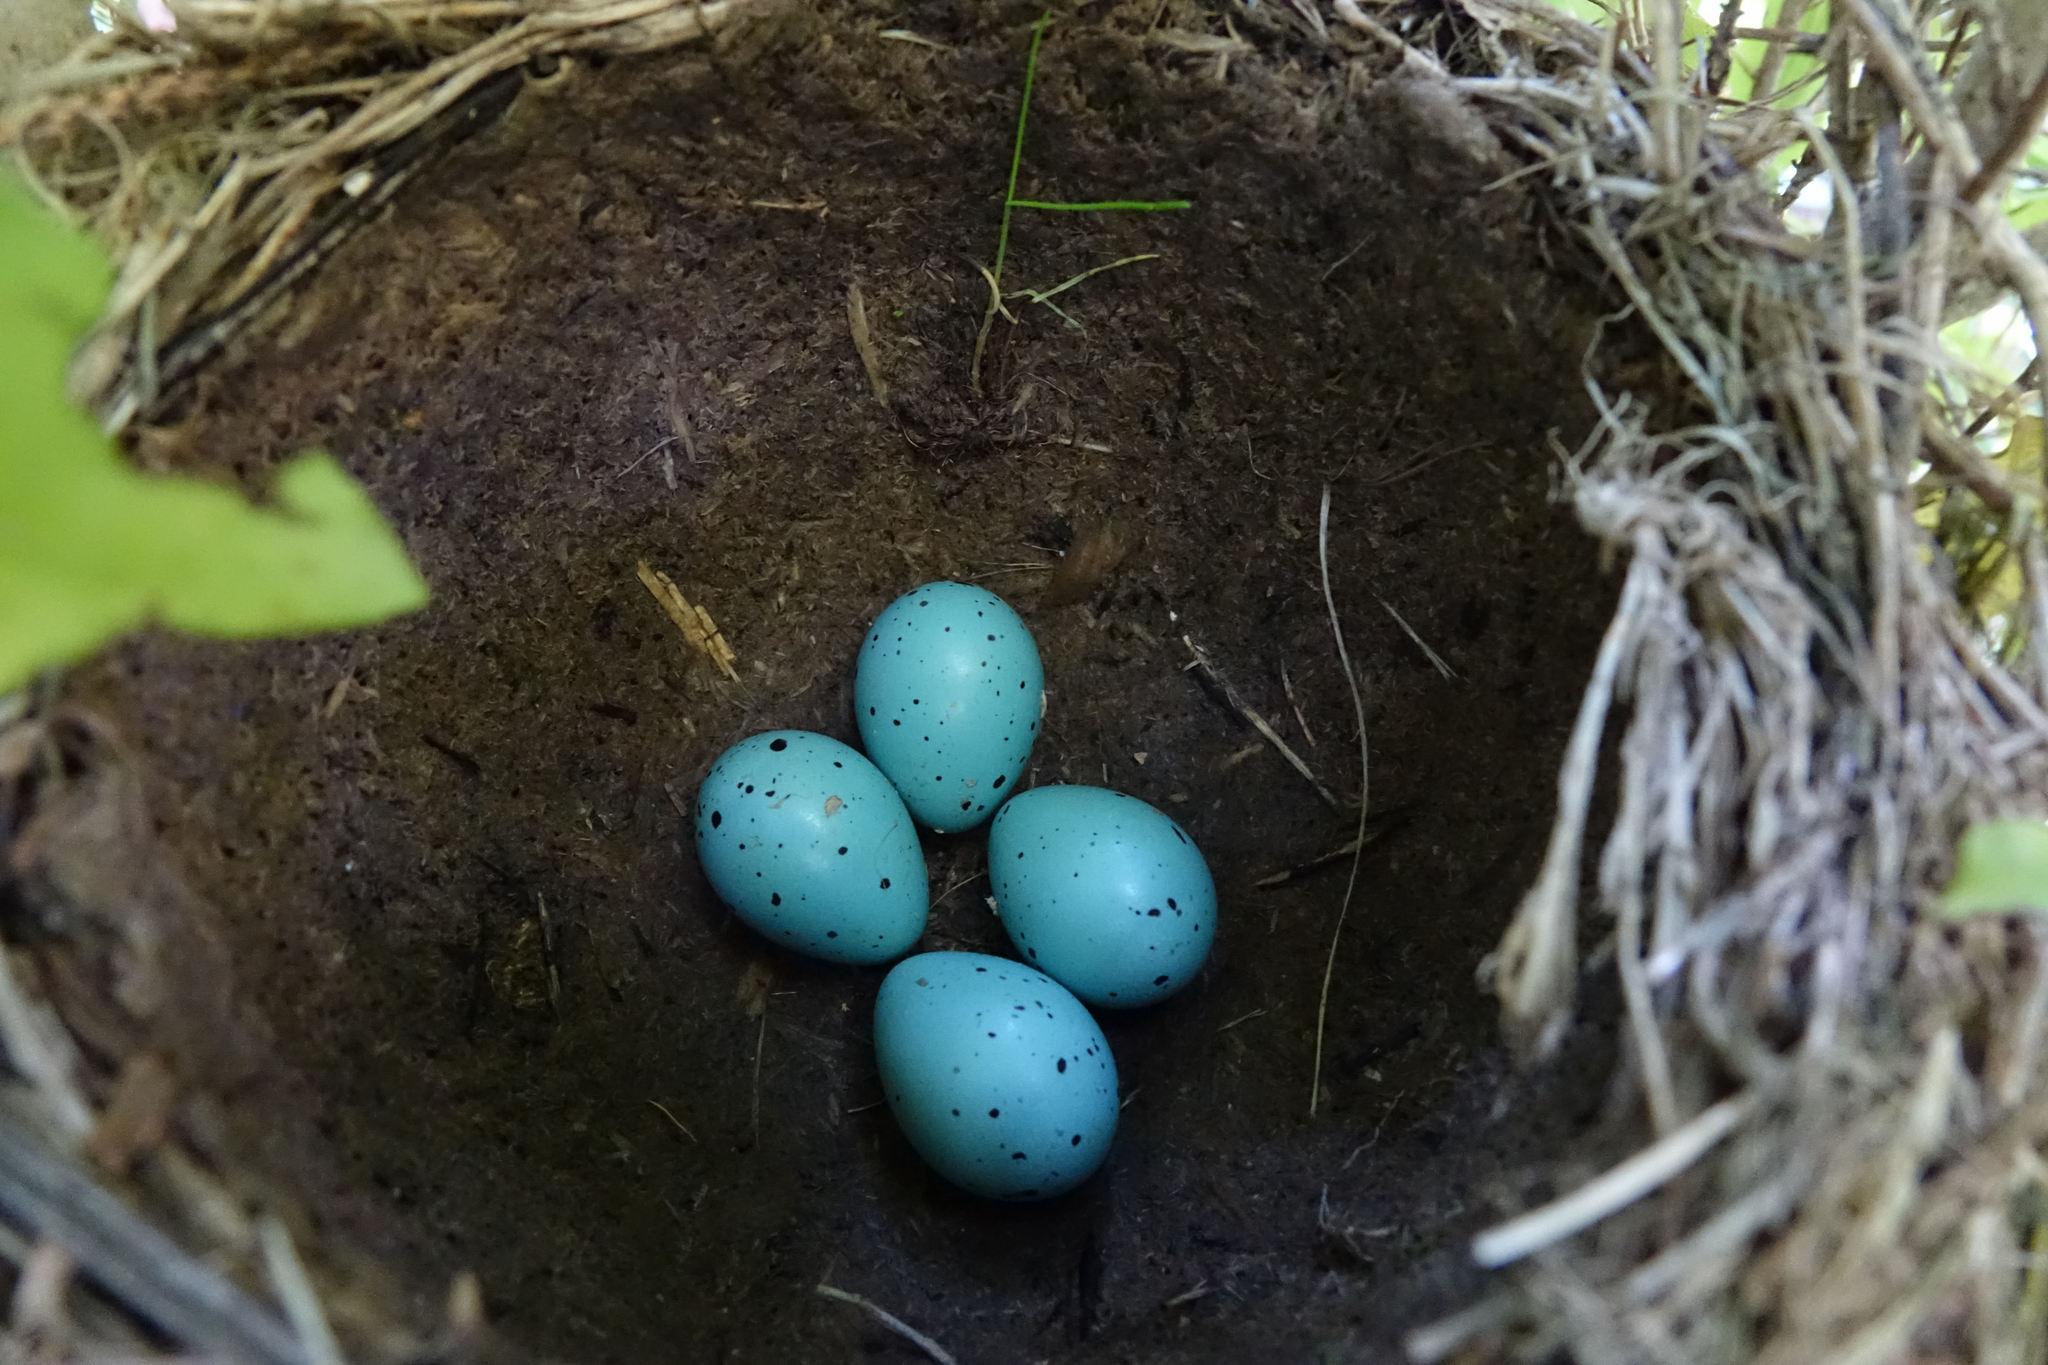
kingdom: Animalia
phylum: Chordata
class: Aves
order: Passeriformes
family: Turdidae
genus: Turdus
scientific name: Turdus philomelos
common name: Song thrush
